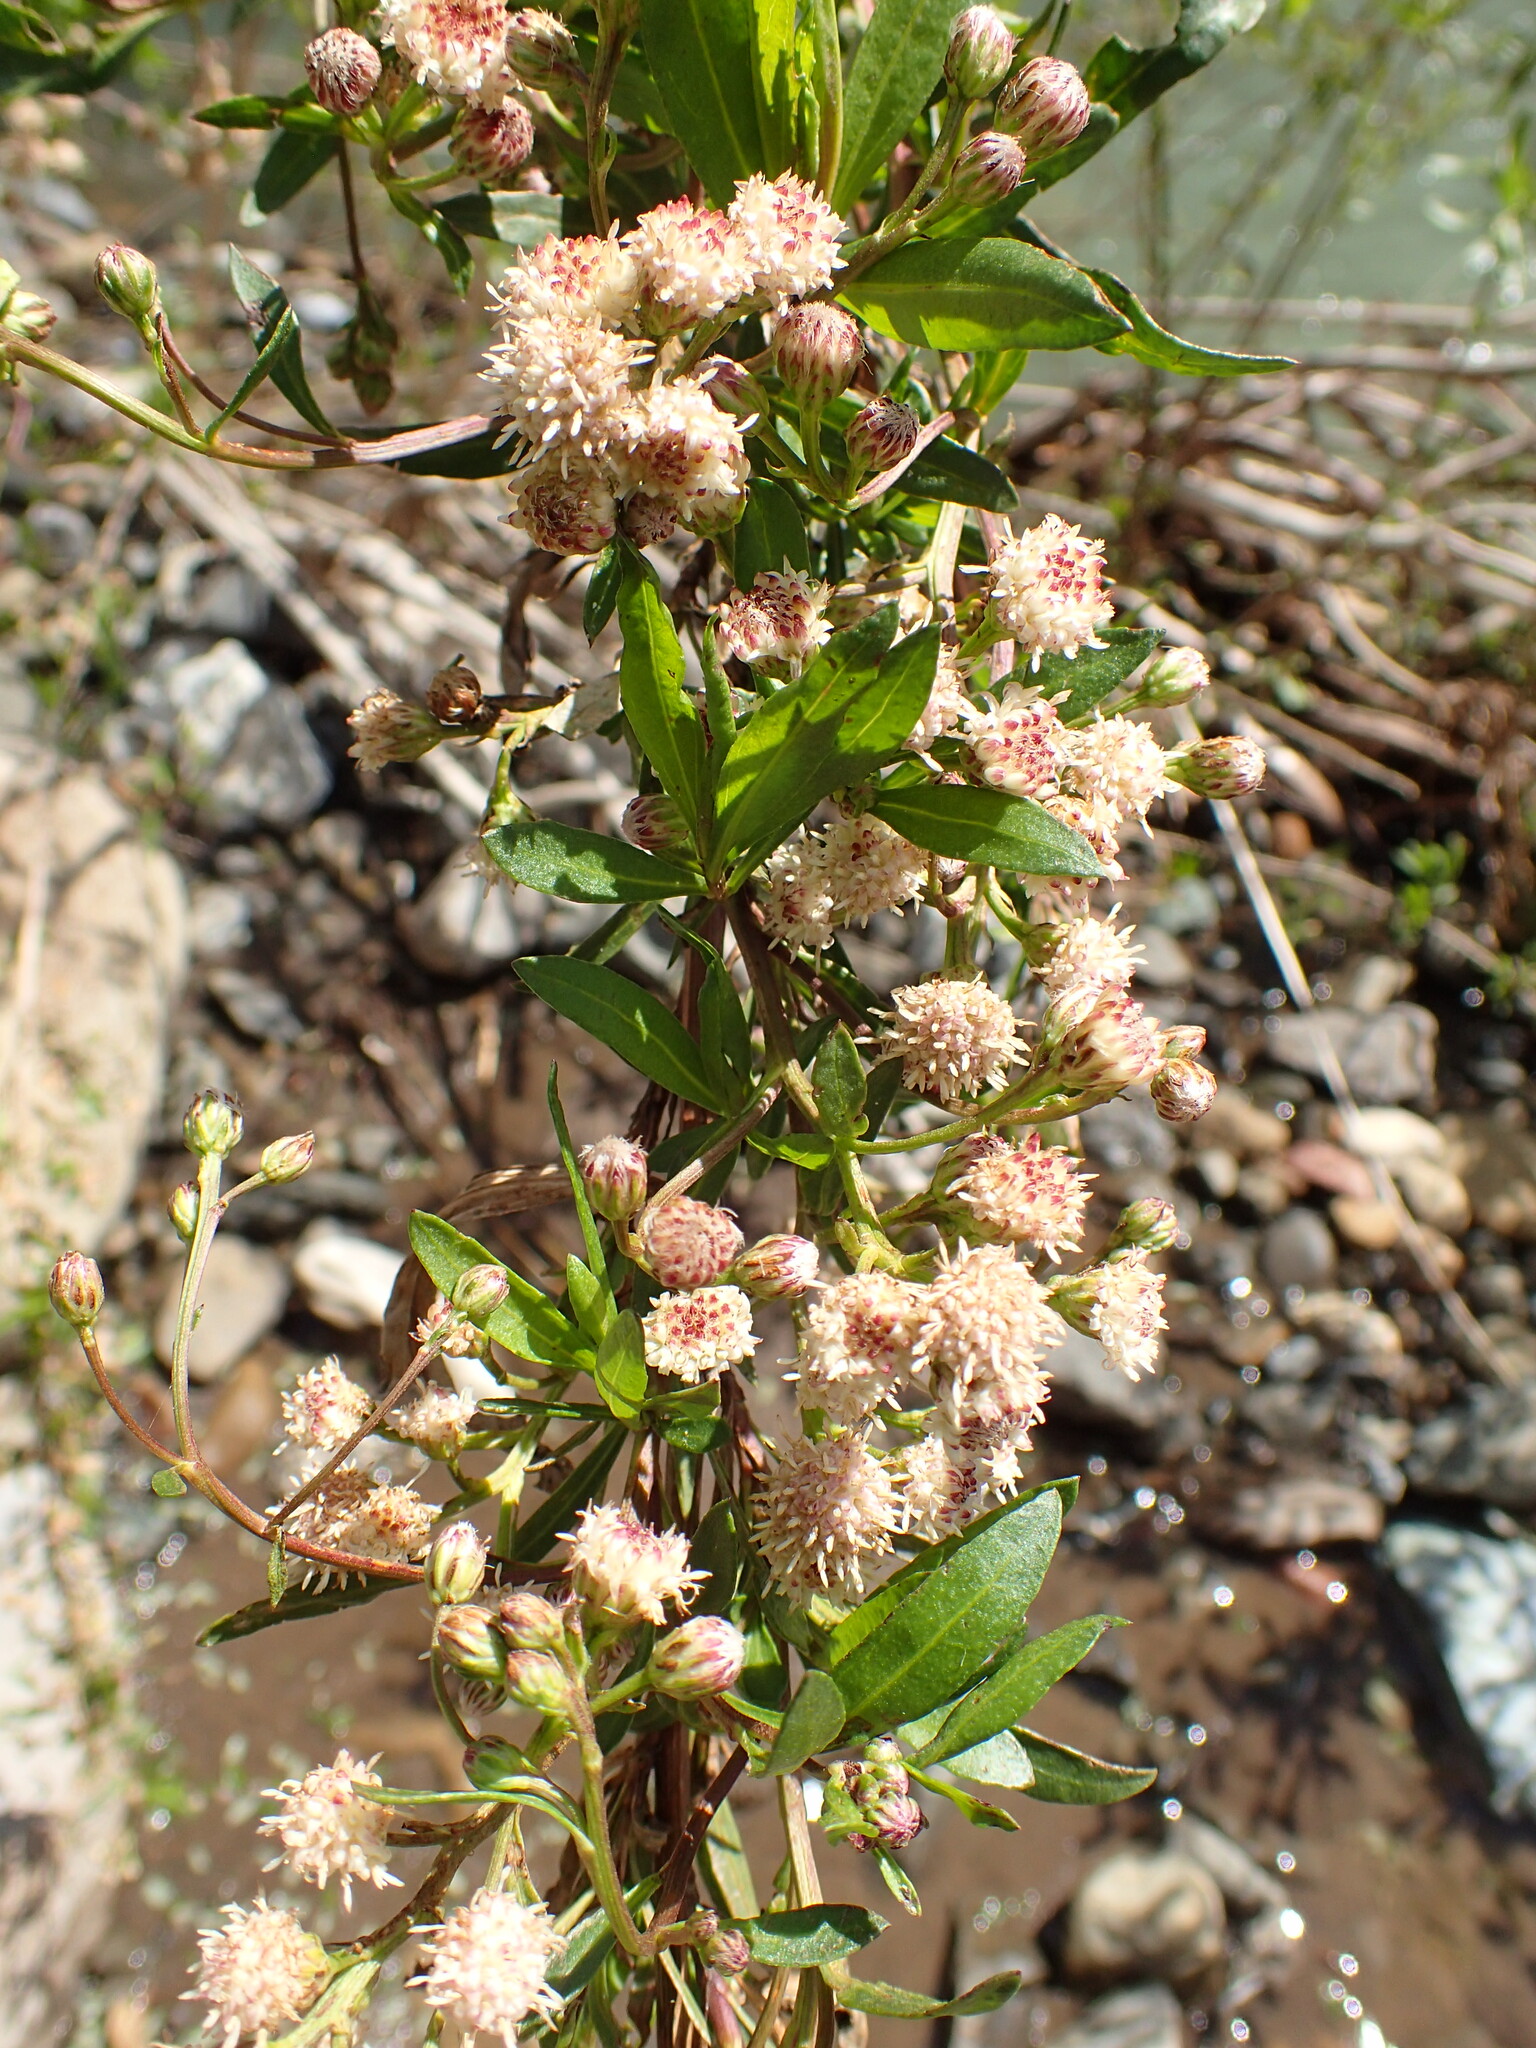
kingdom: Plantae
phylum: Tracheophyta
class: Magnoliopsida
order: Asterales
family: Asteraceae
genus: Baccharis
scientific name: Baccharis salicifolia
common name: Sticky baccharis
